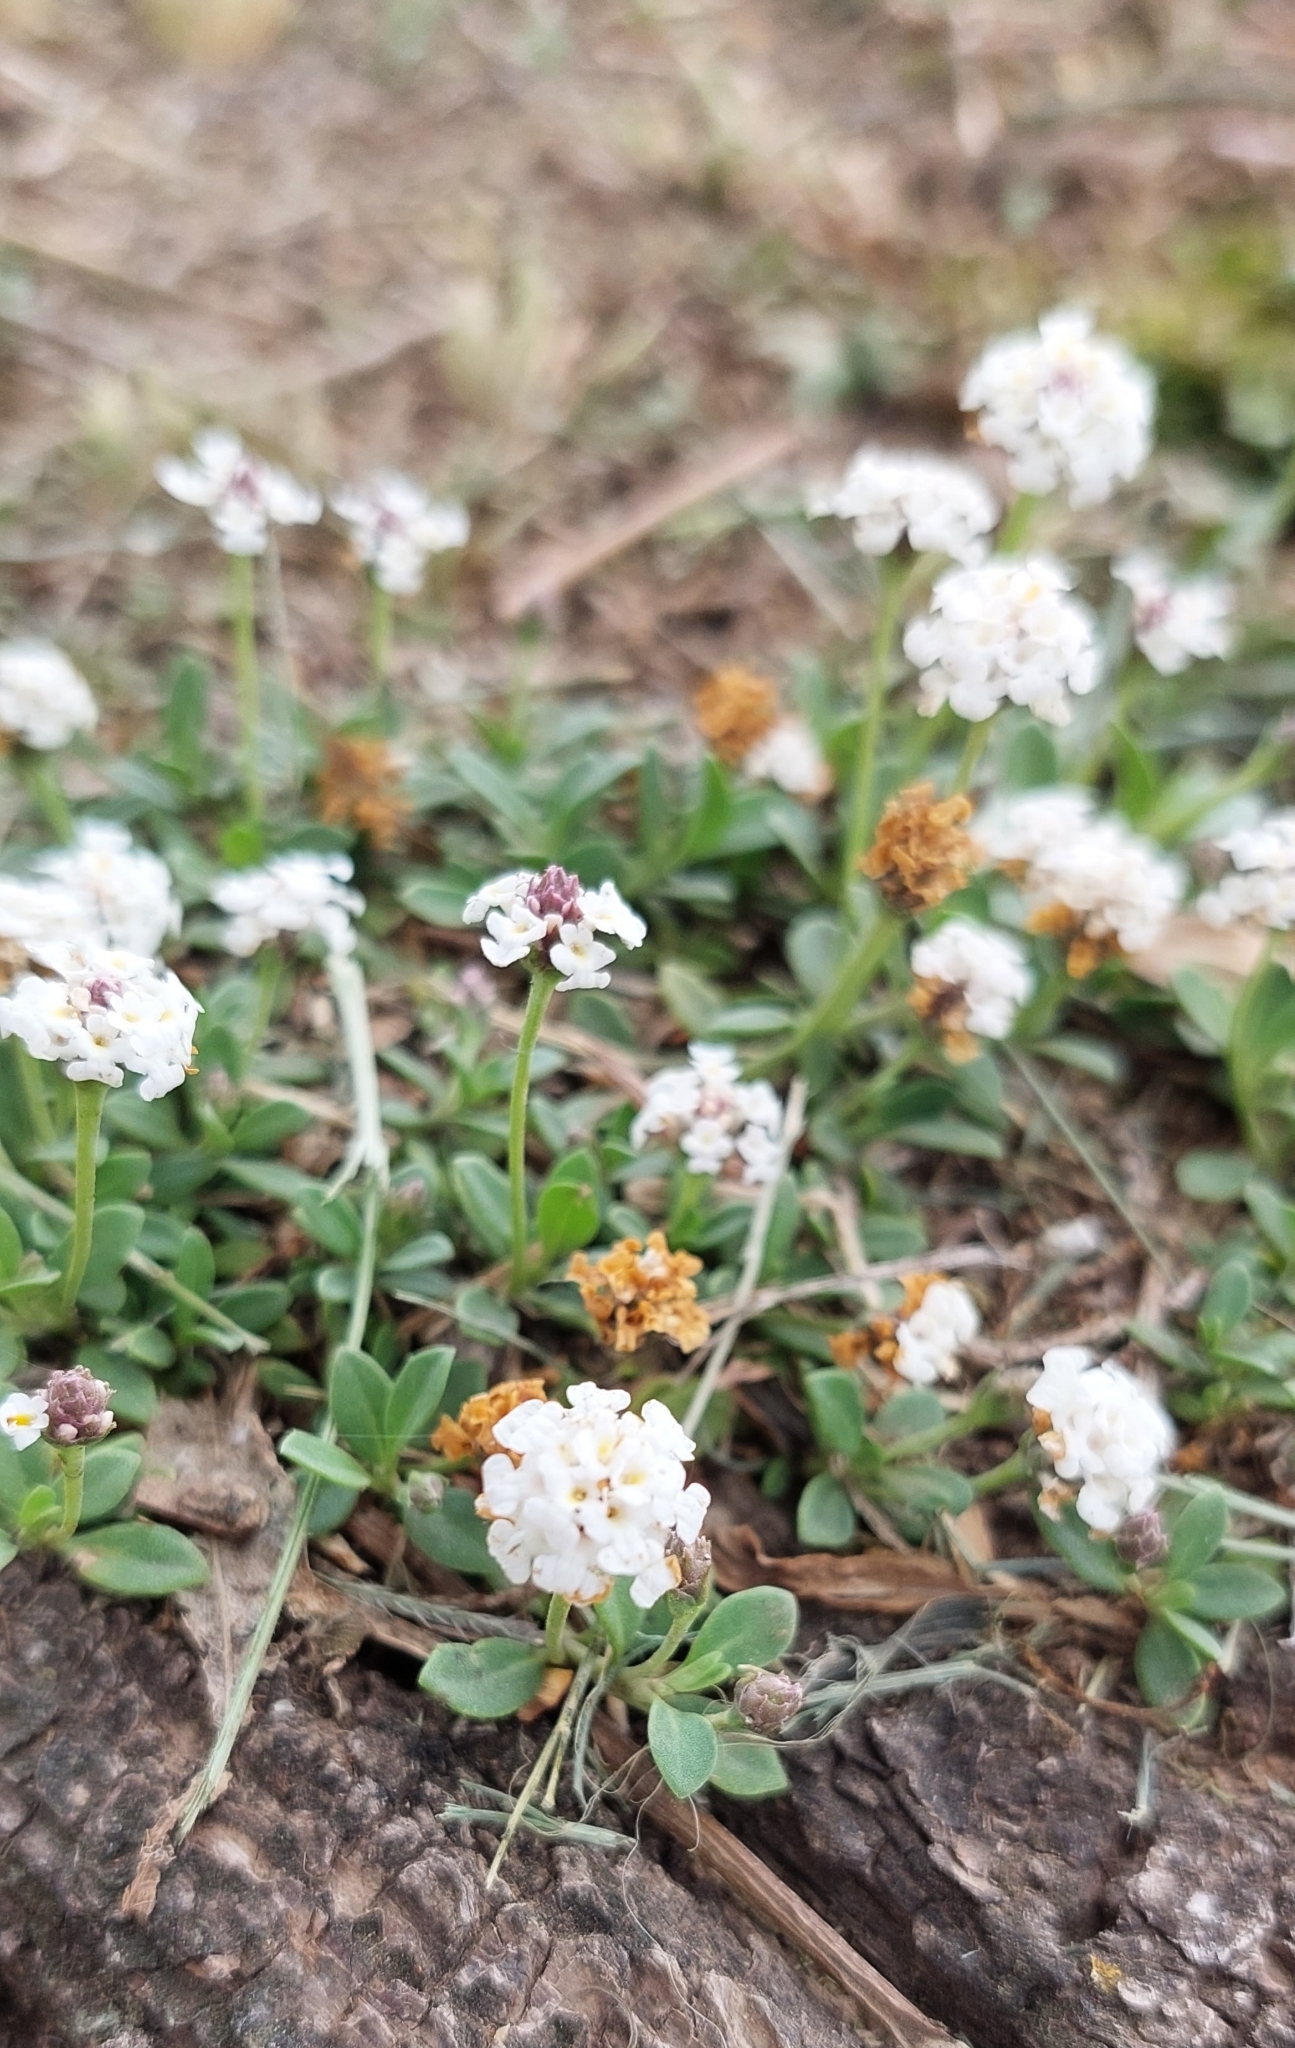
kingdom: Plantae
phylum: Tracheophyta
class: Magnoliopsida
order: Lamiales
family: Verbenaceae
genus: Phyla
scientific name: Phyla nodiflora
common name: Frogfruit
